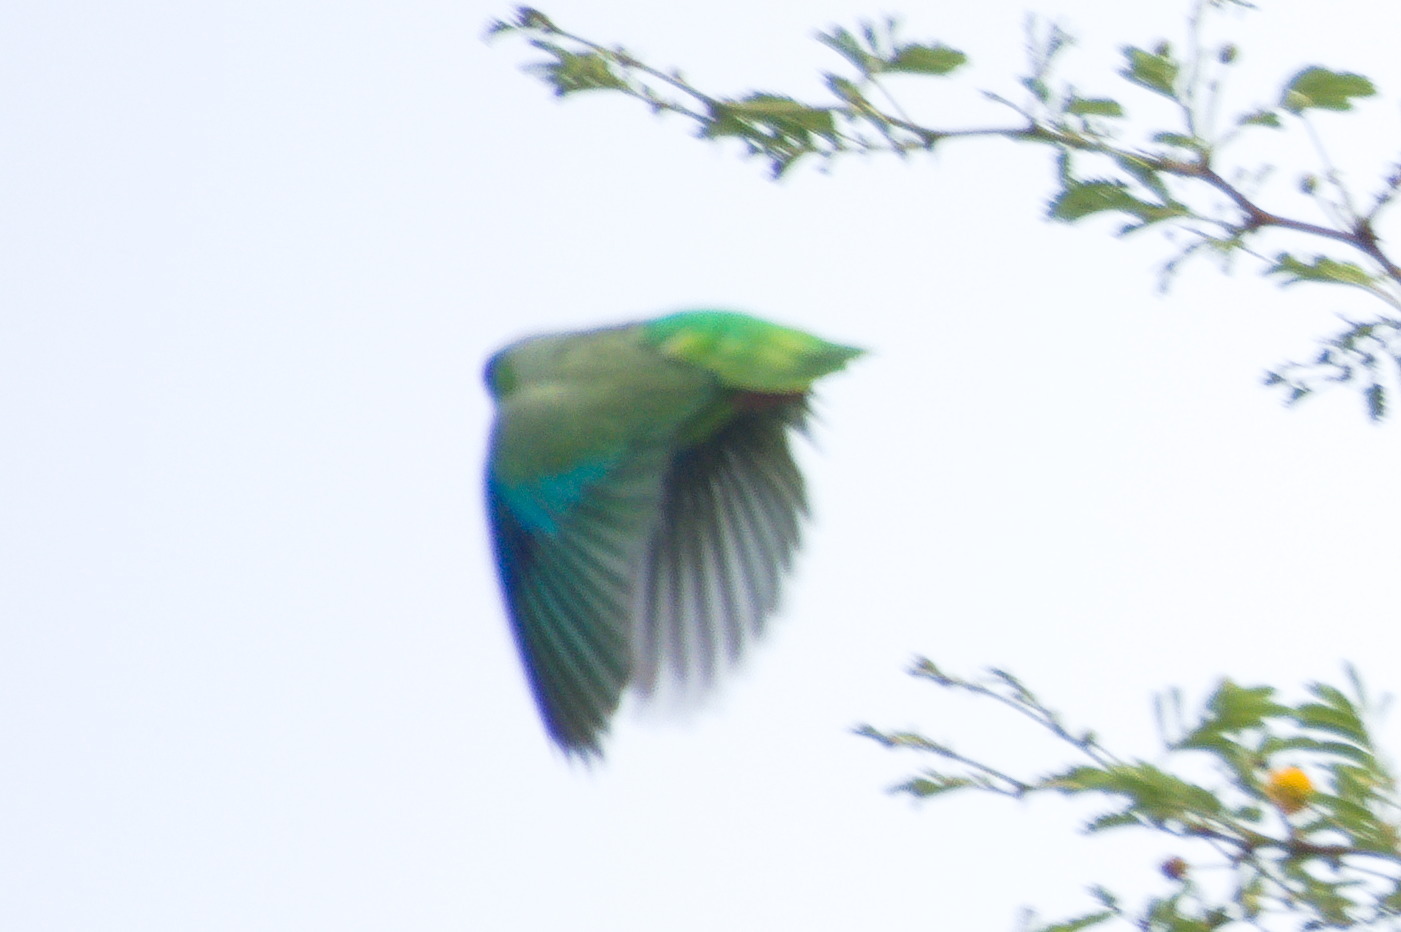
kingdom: Animalia
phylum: Chordata
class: Aves
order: Psittaciformes
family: Psittacidae
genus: Forpus
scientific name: Forpus passerinus
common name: Green-rumped parrotlet
